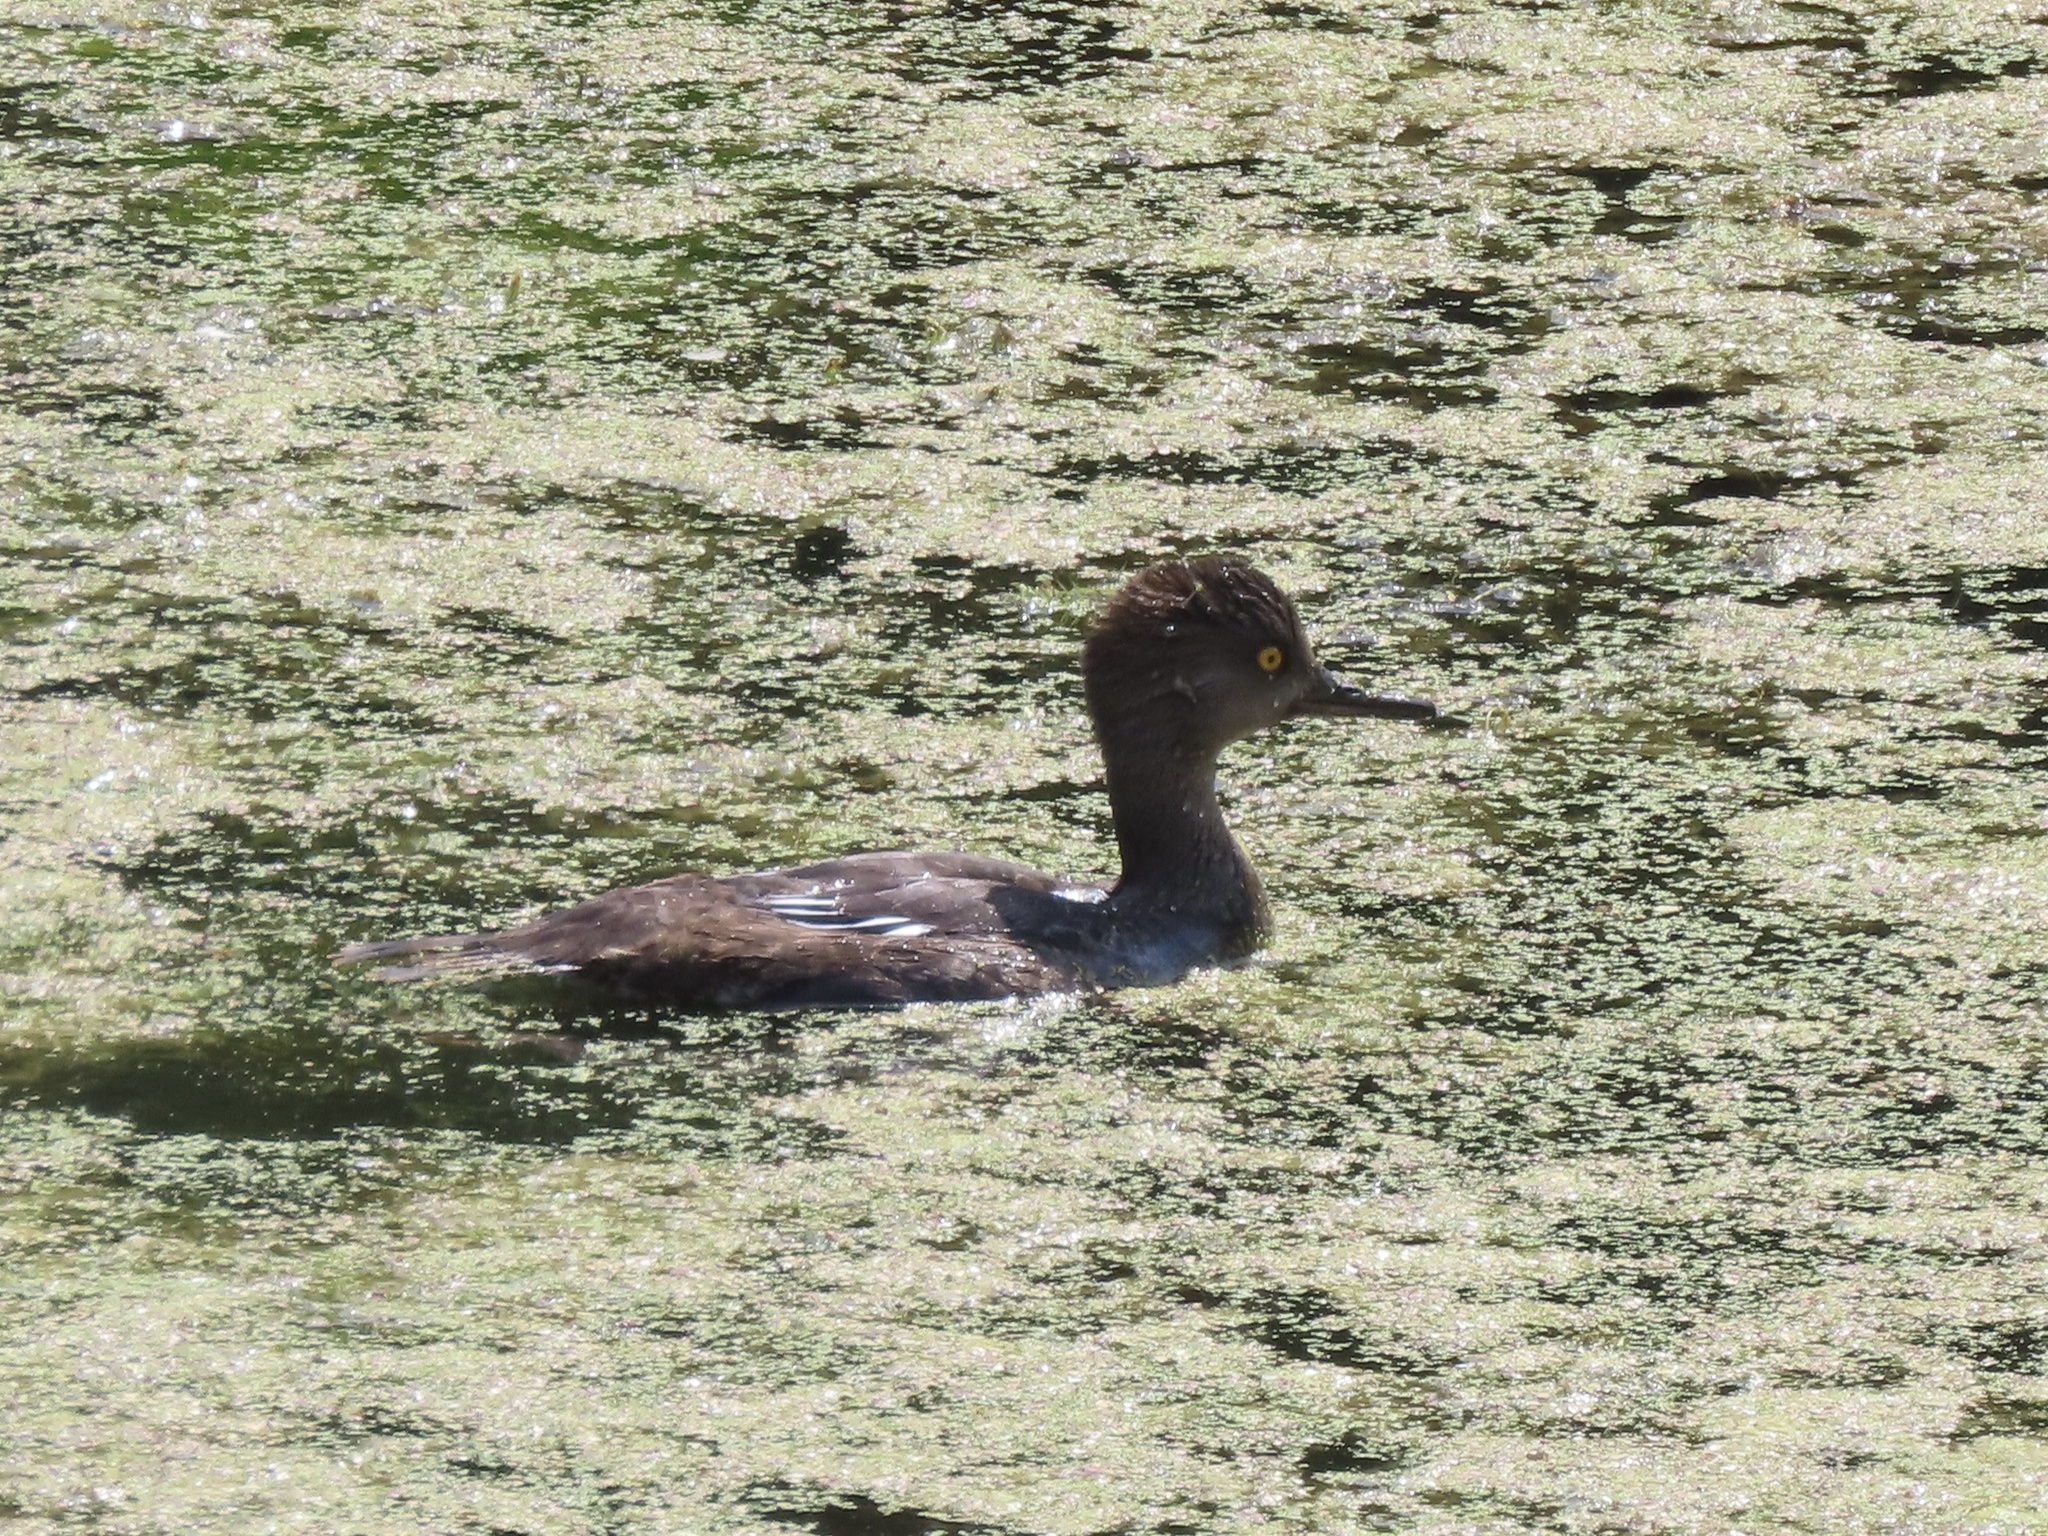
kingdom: Animalia
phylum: Chordata
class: Aves
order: Anseriformes
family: Anatidae
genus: Lophodytes
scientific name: Lophodytes cucullatus
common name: Hooded merganser
